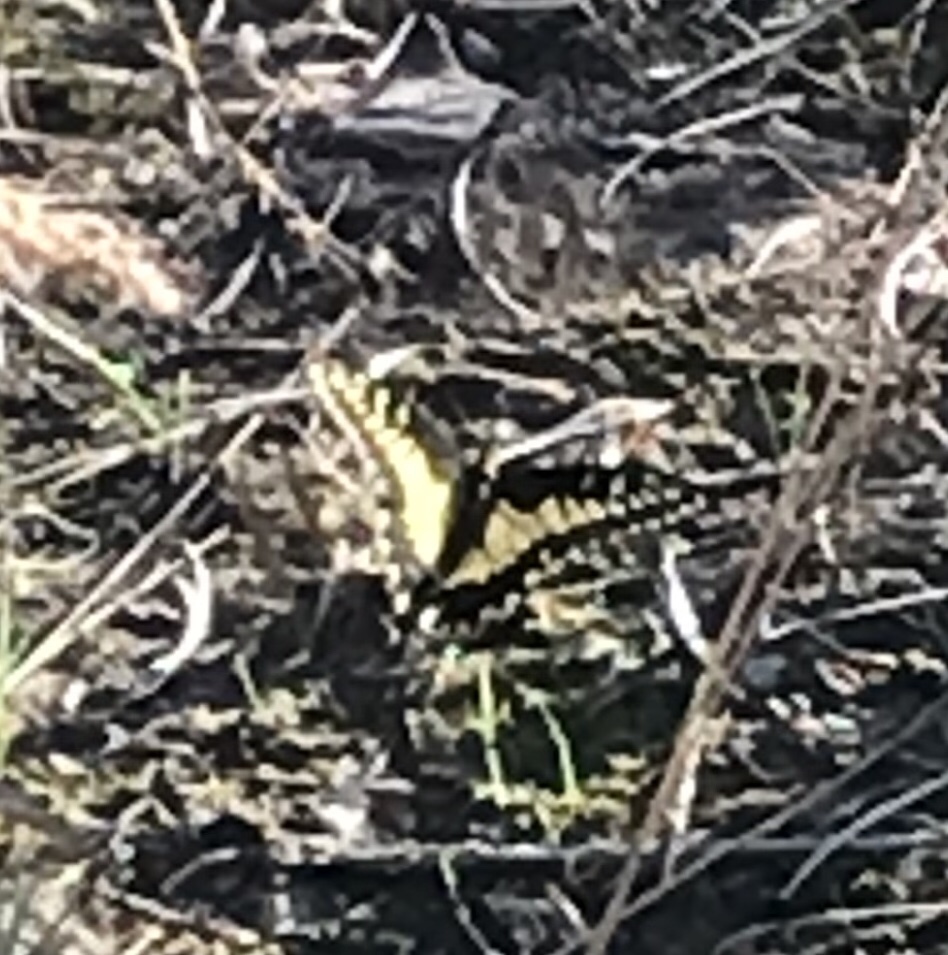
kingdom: Animalia
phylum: Arthropoda
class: Insecta
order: Lepidoptera
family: Papilionidae
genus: Papilio
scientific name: Papilio zelicaon
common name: Anise swallowtail
